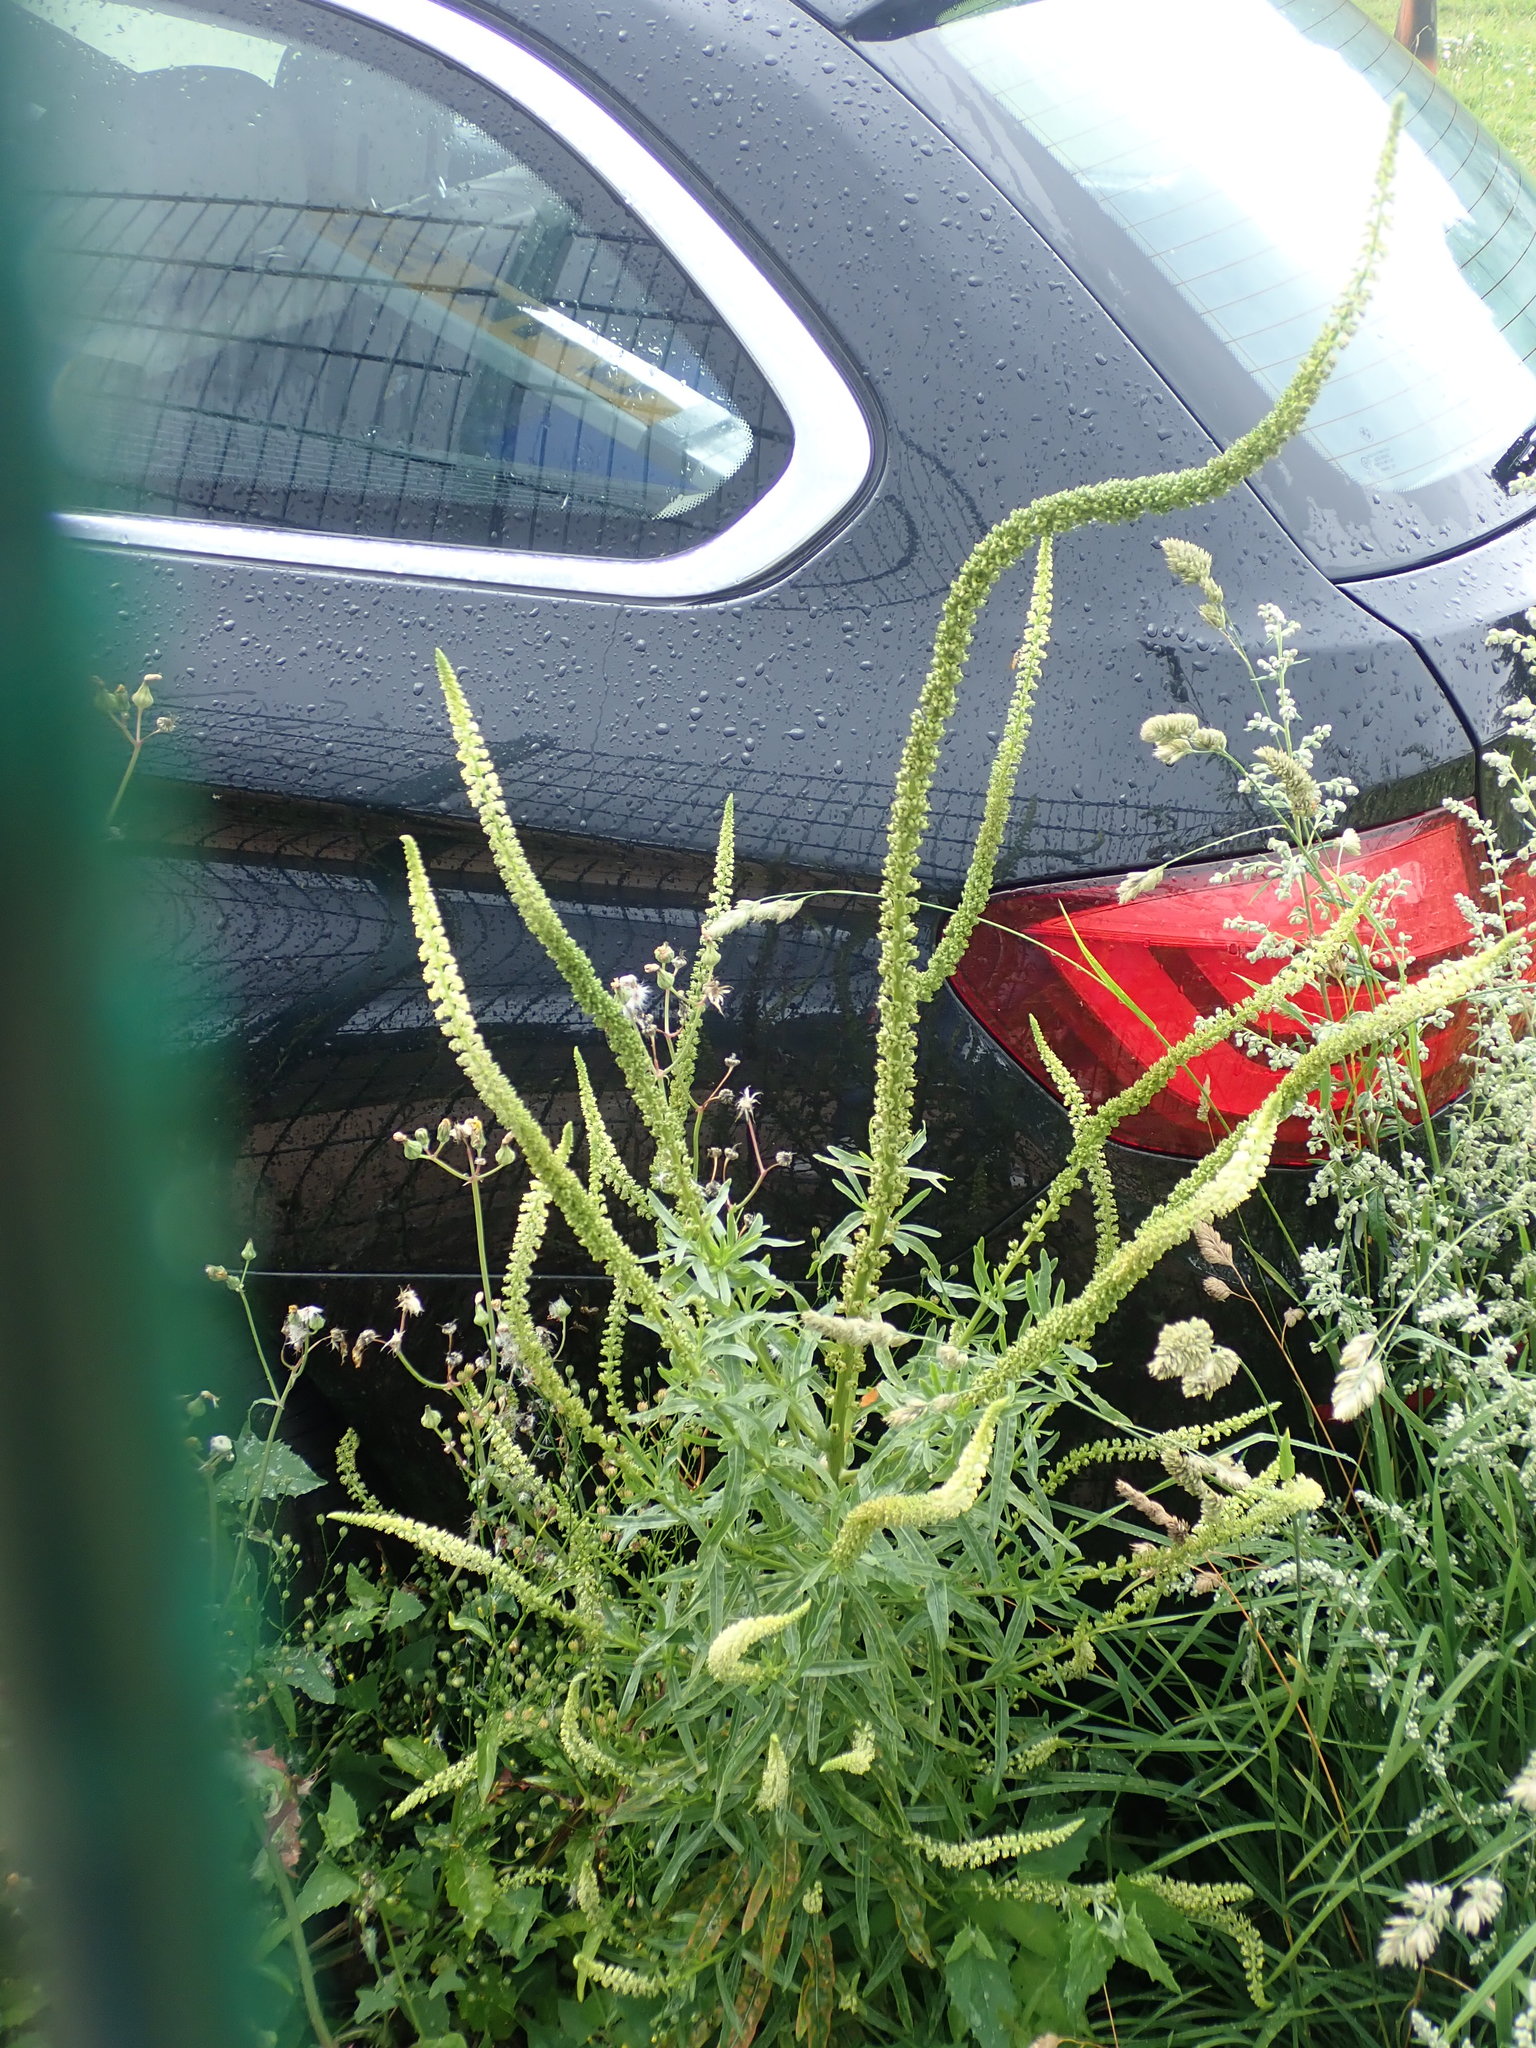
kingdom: Plantae
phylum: Tracheophyta
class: Magnoliopsida
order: Brassicales
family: Resedaceae
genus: Reseda
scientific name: Reseda luteola
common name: Weld
